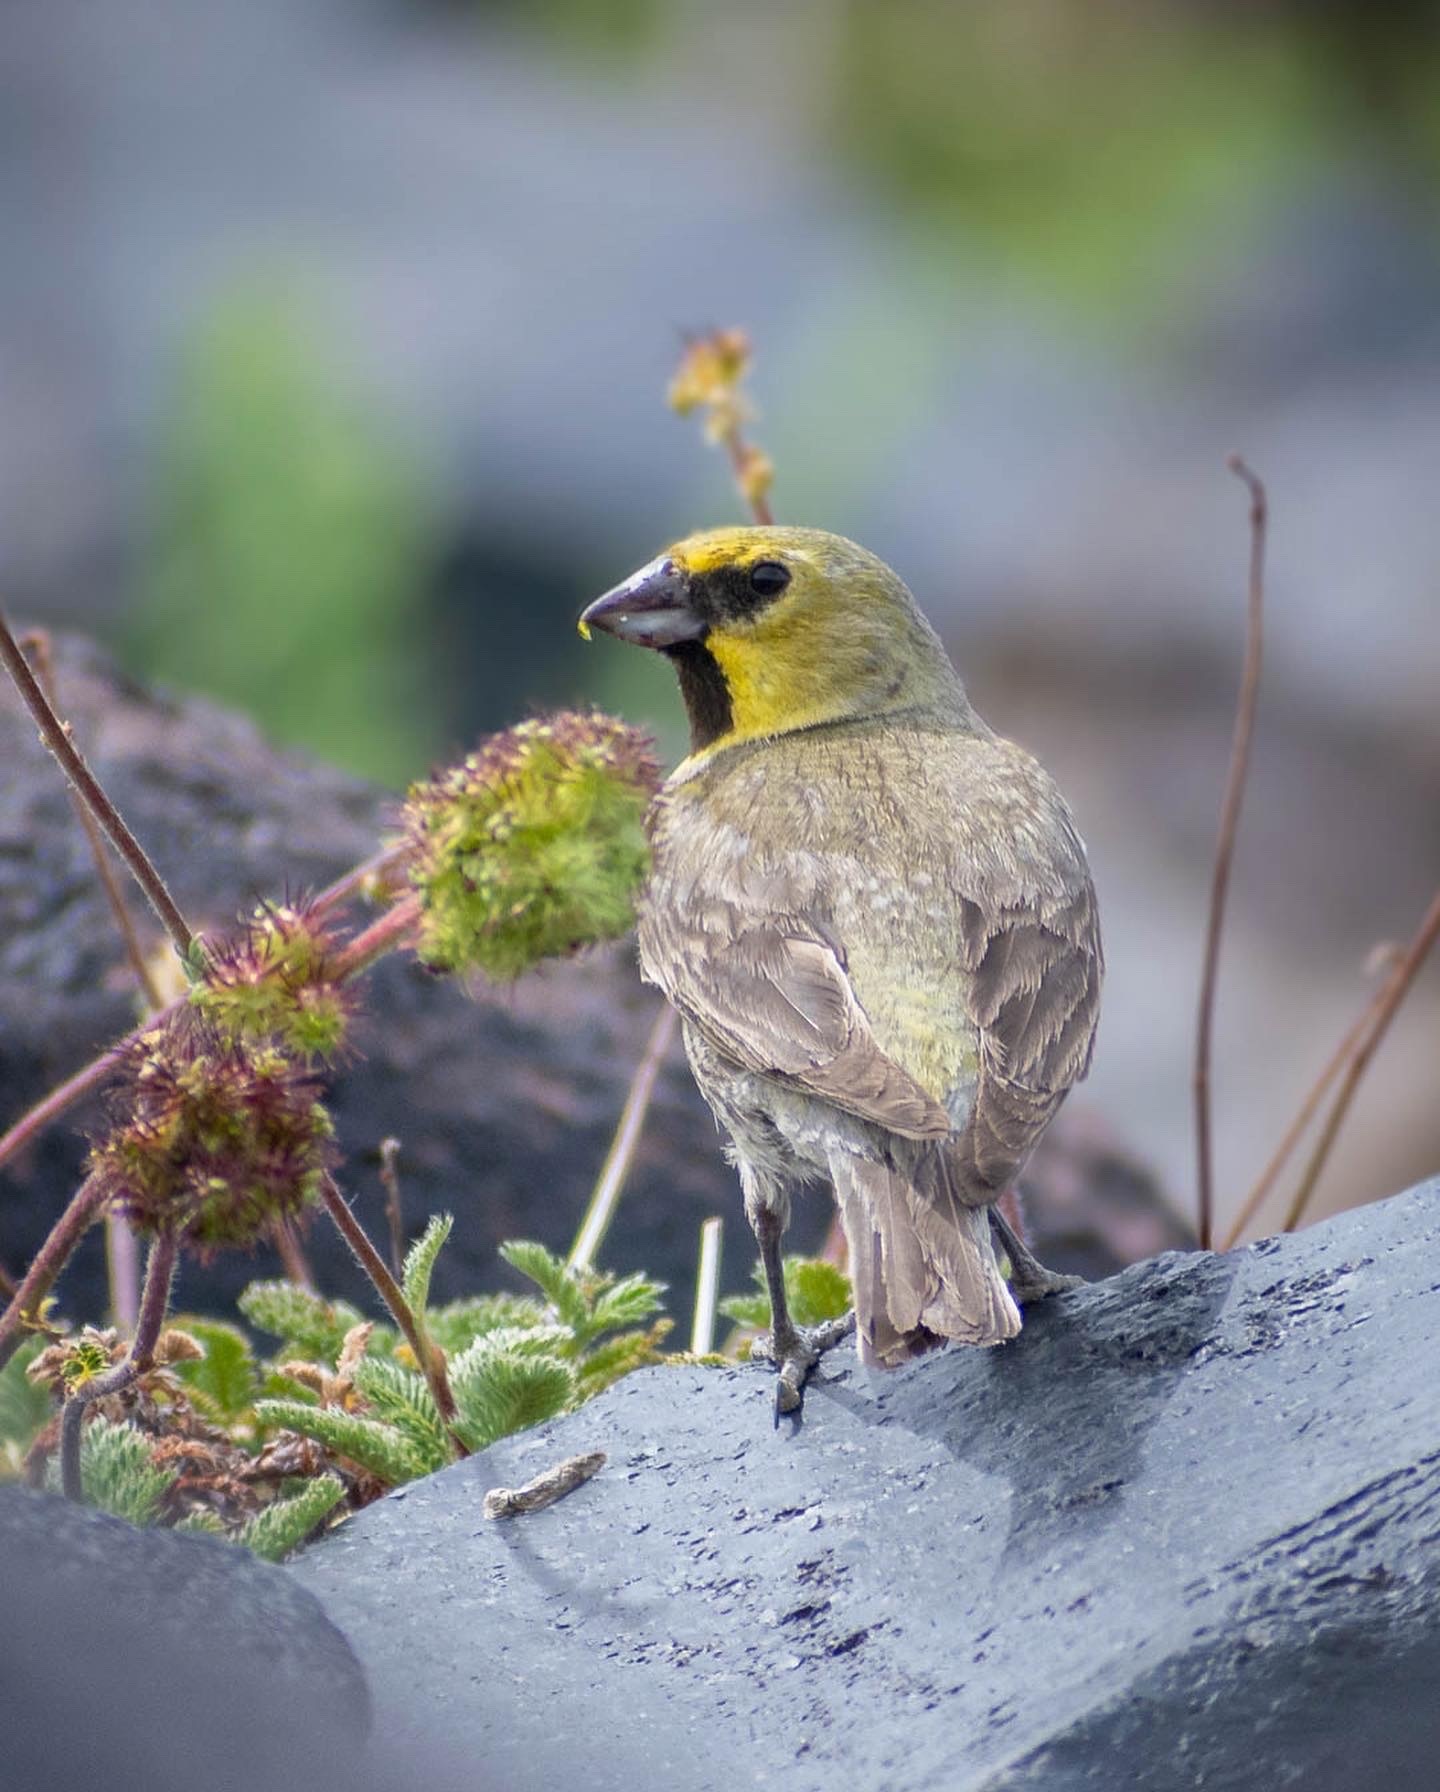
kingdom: Animalia
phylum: Chordata
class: Aves
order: Passeriformes
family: Thraupidae
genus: Melanodera
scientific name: Melanodera xanthogramma
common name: Yellow-bridled finch
